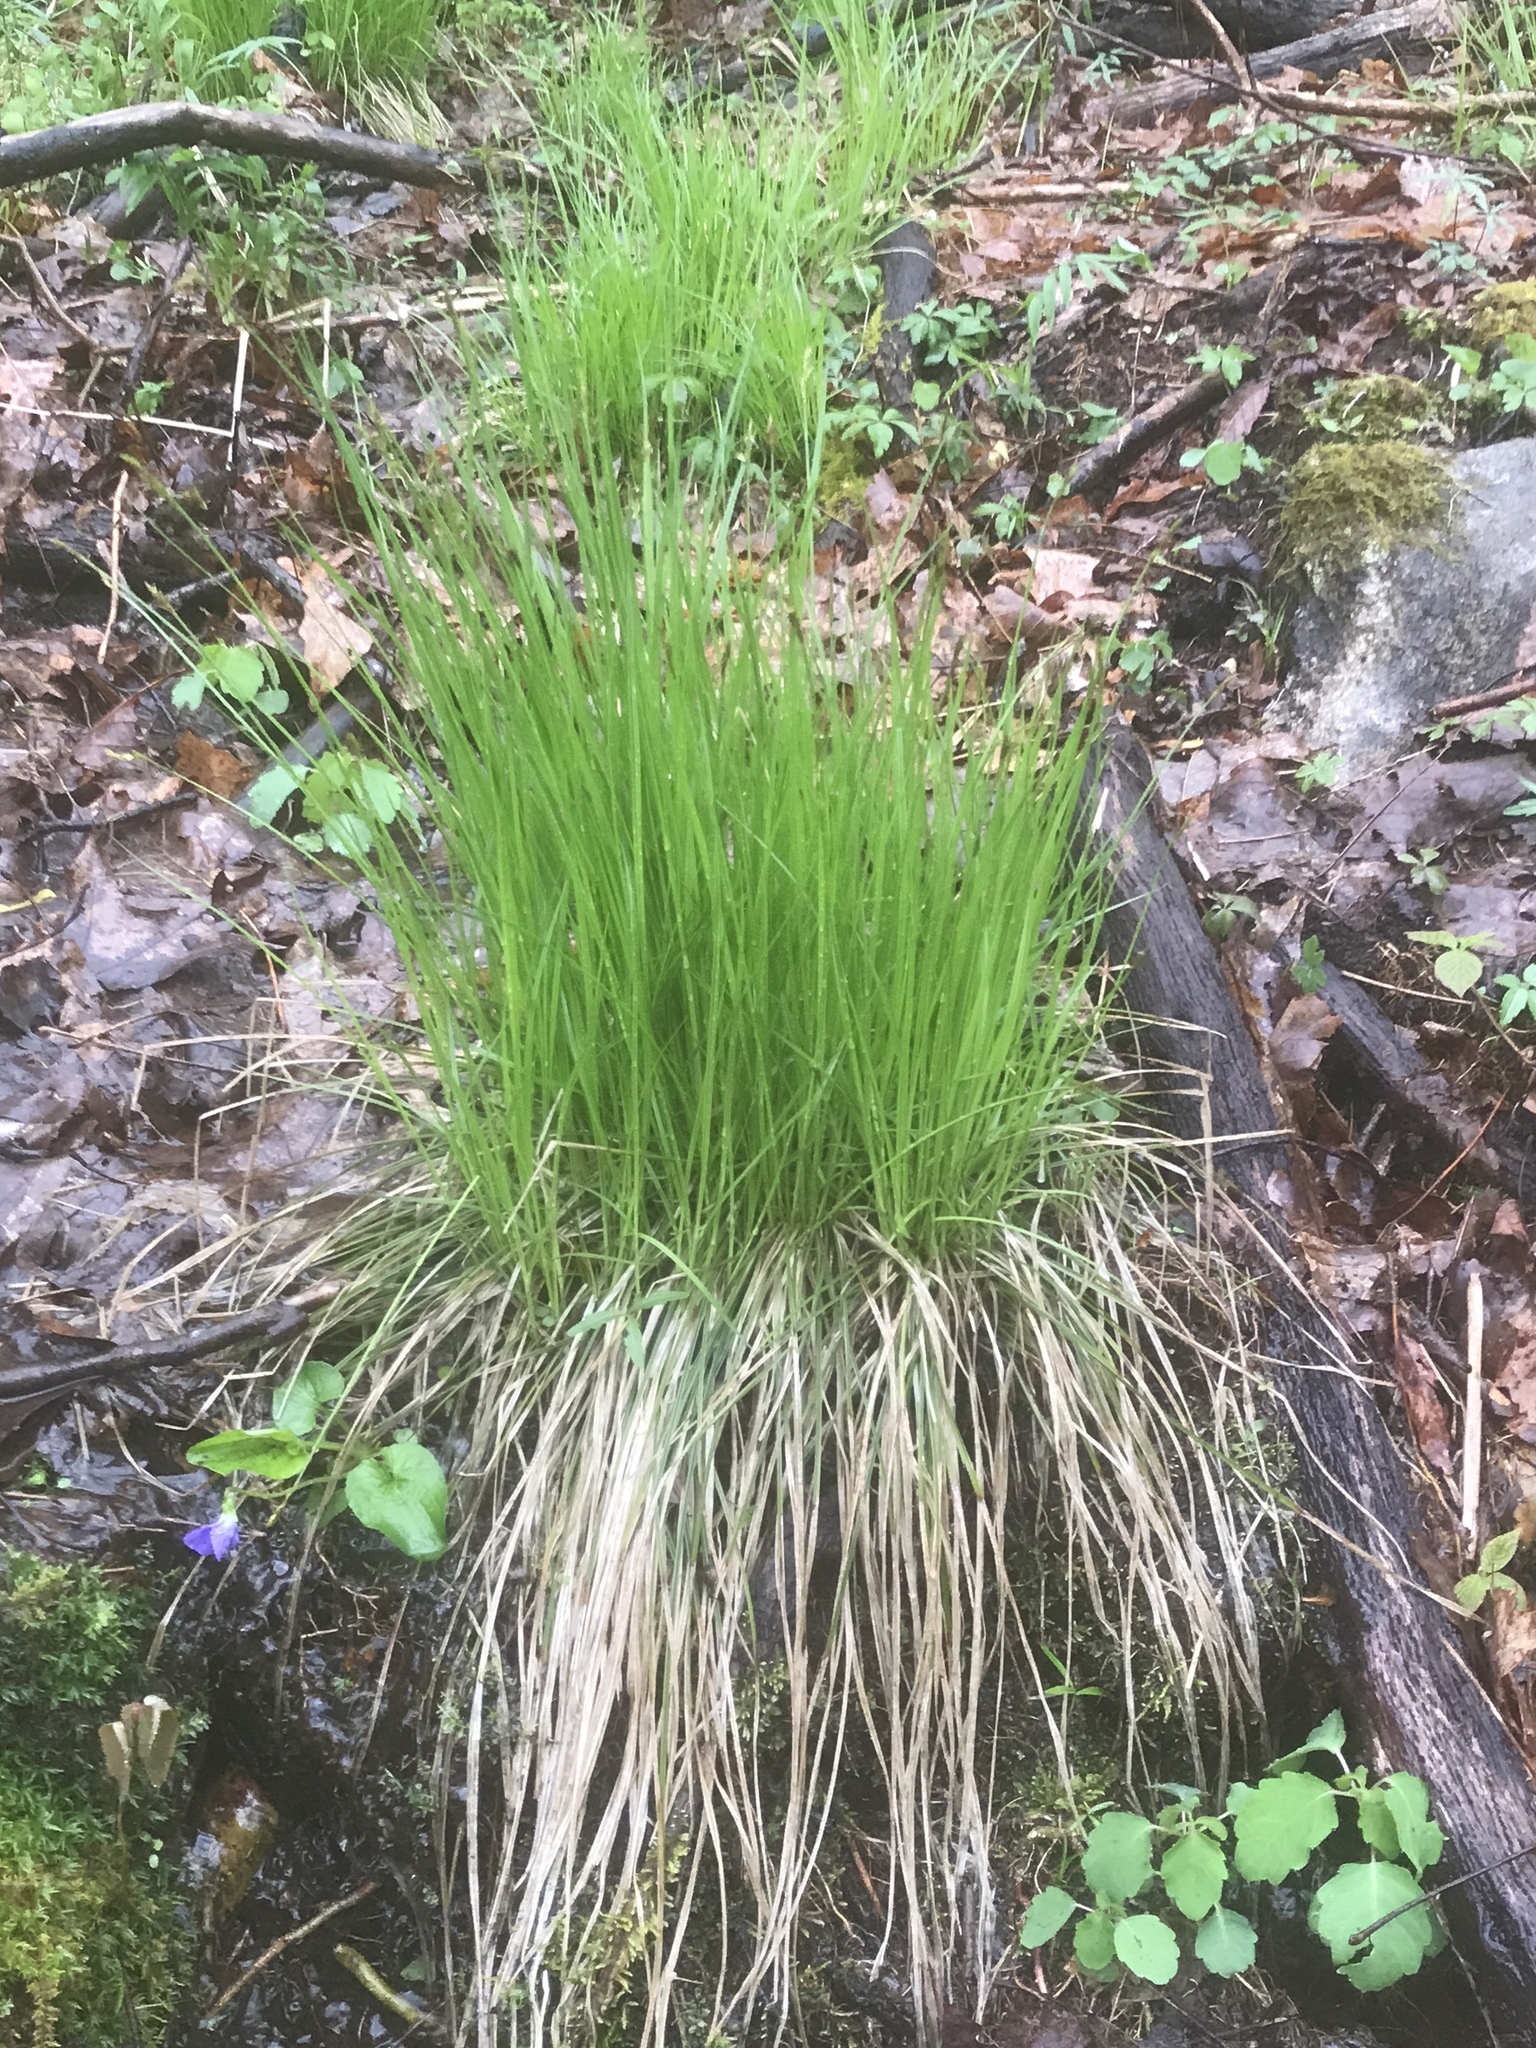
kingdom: Plantae
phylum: Tracheophyta
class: Liliopsida
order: Poales
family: Cyperaceae
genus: Carex
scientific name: Carex bromoides
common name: Brome hummock sedge
